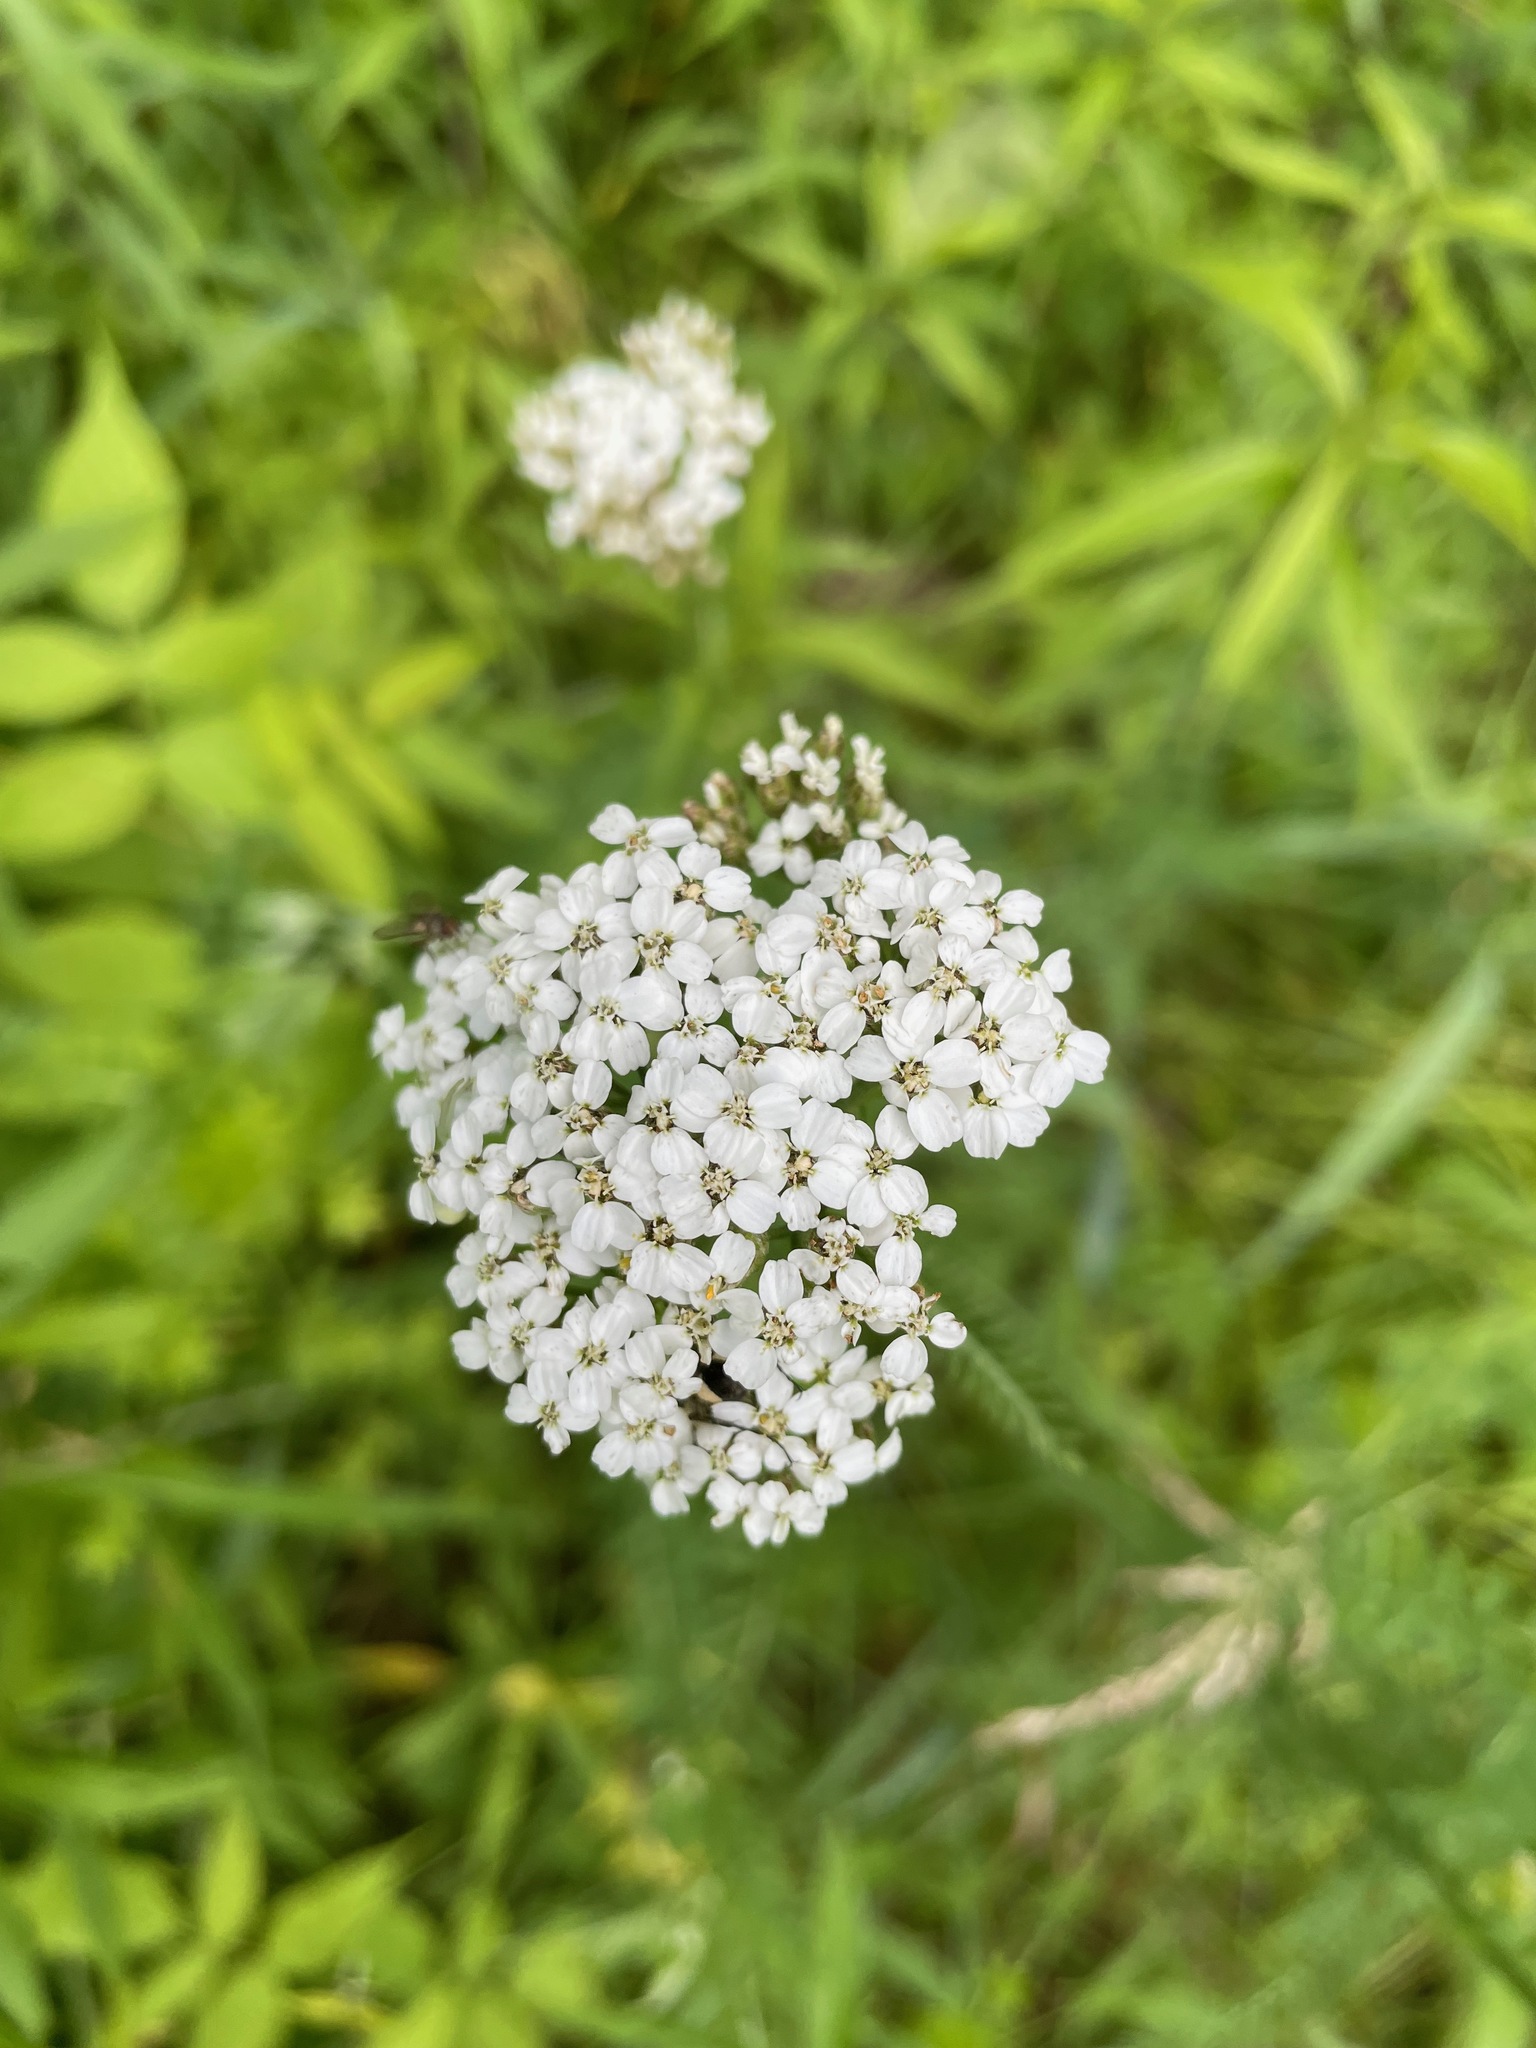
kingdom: Plantae
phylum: Tracheophyta
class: Magnoliopsida
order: Asterales
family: Asteraceae
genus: Achillea
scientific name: Achillea millefolium
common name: Yarrow
